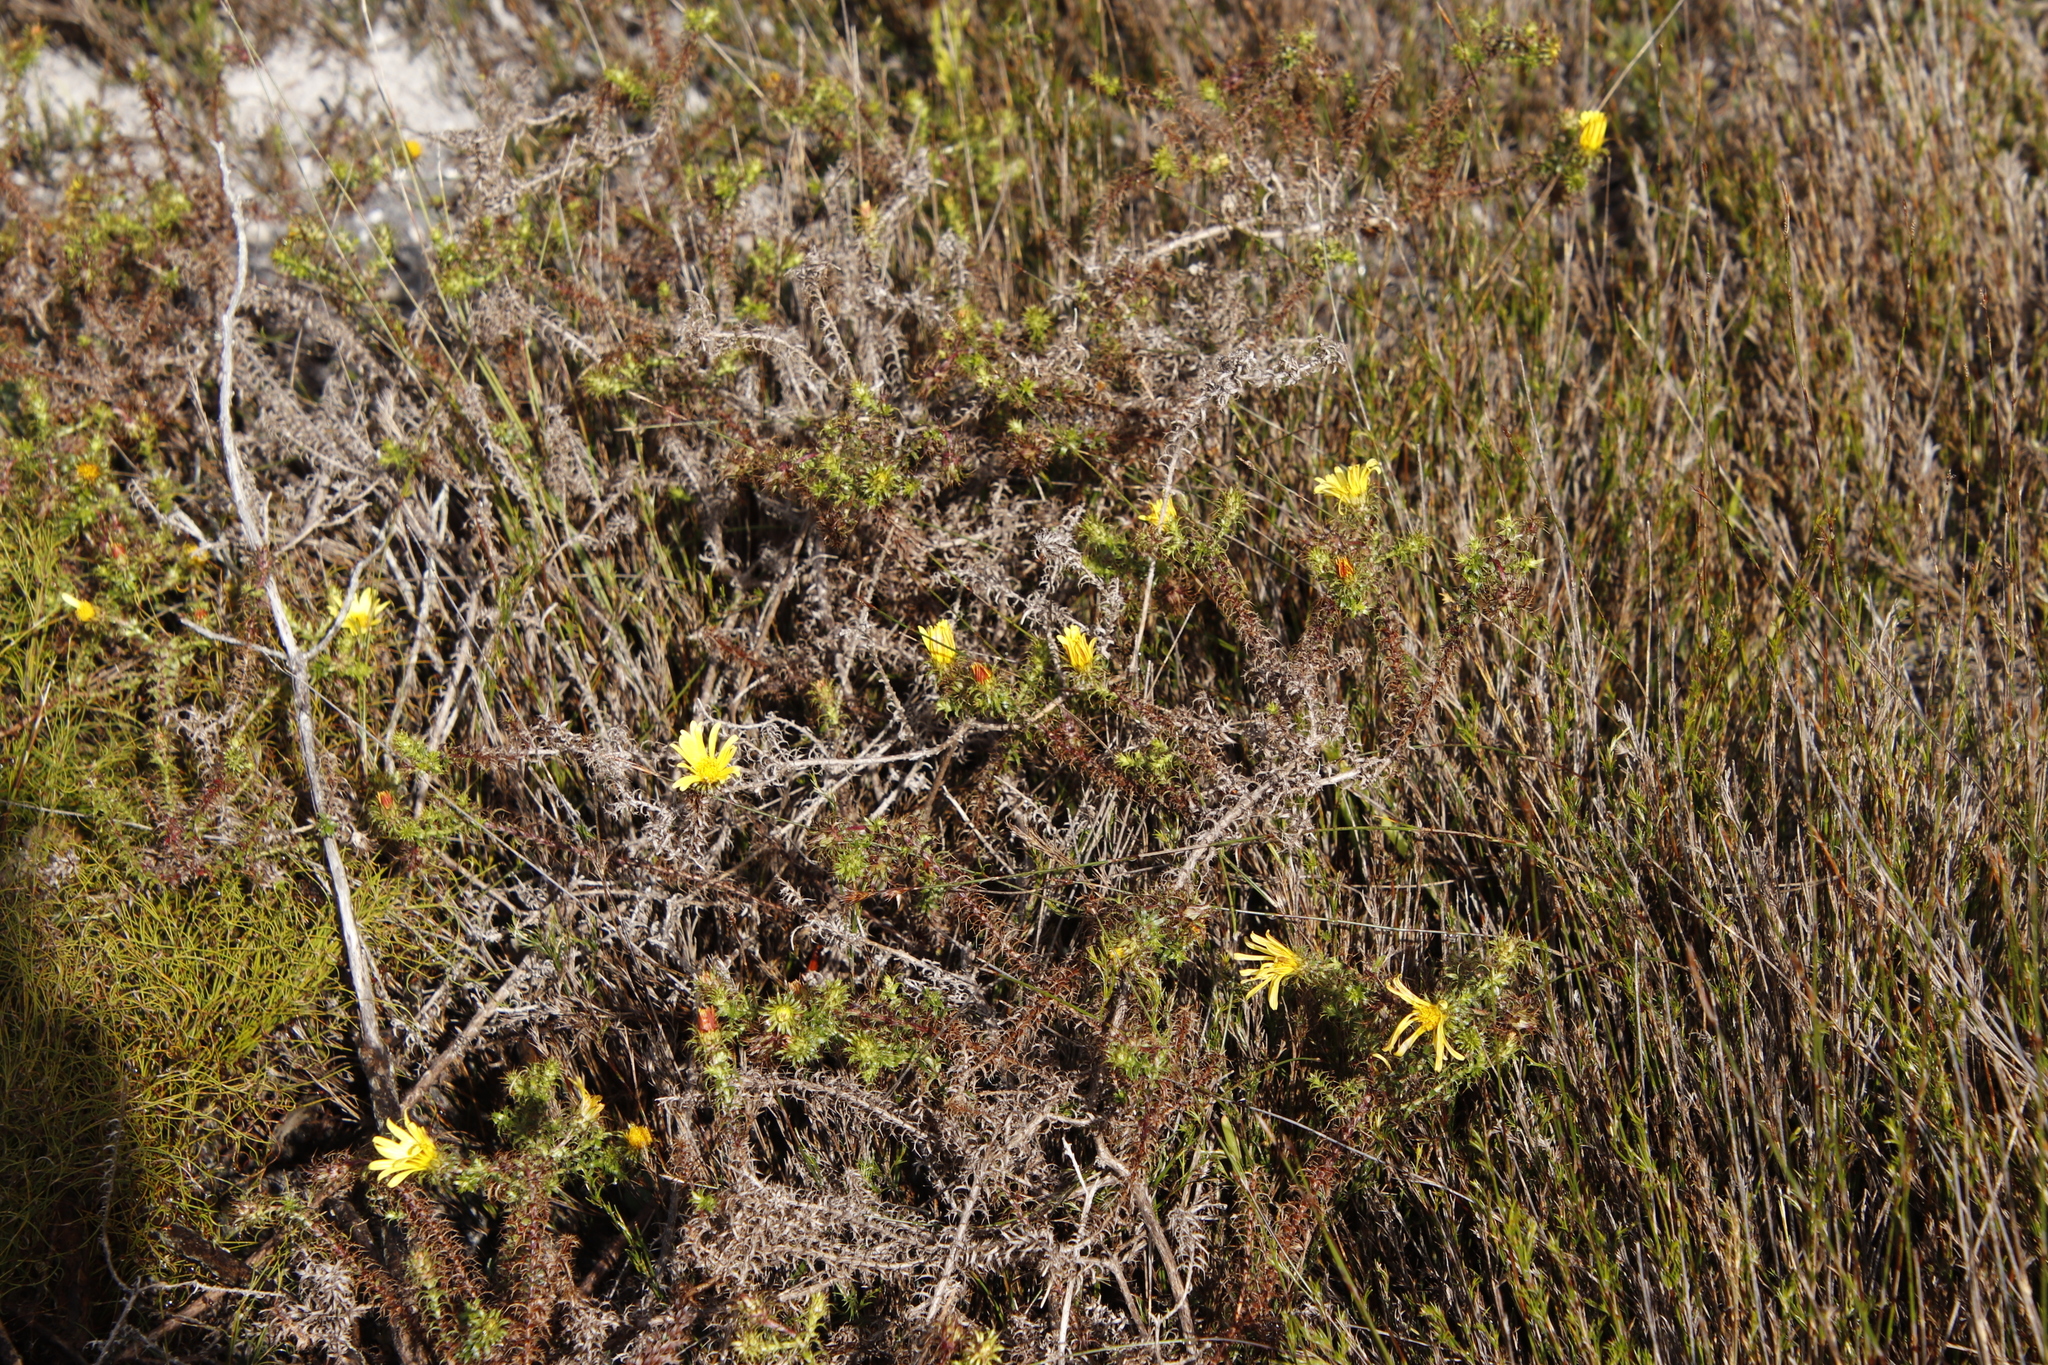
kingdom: Plantae
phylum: Tracheophyta
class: Magnoliopsida
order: Asterales
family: Asteraceae
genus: Cullumia
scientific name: Cullumia setosa
